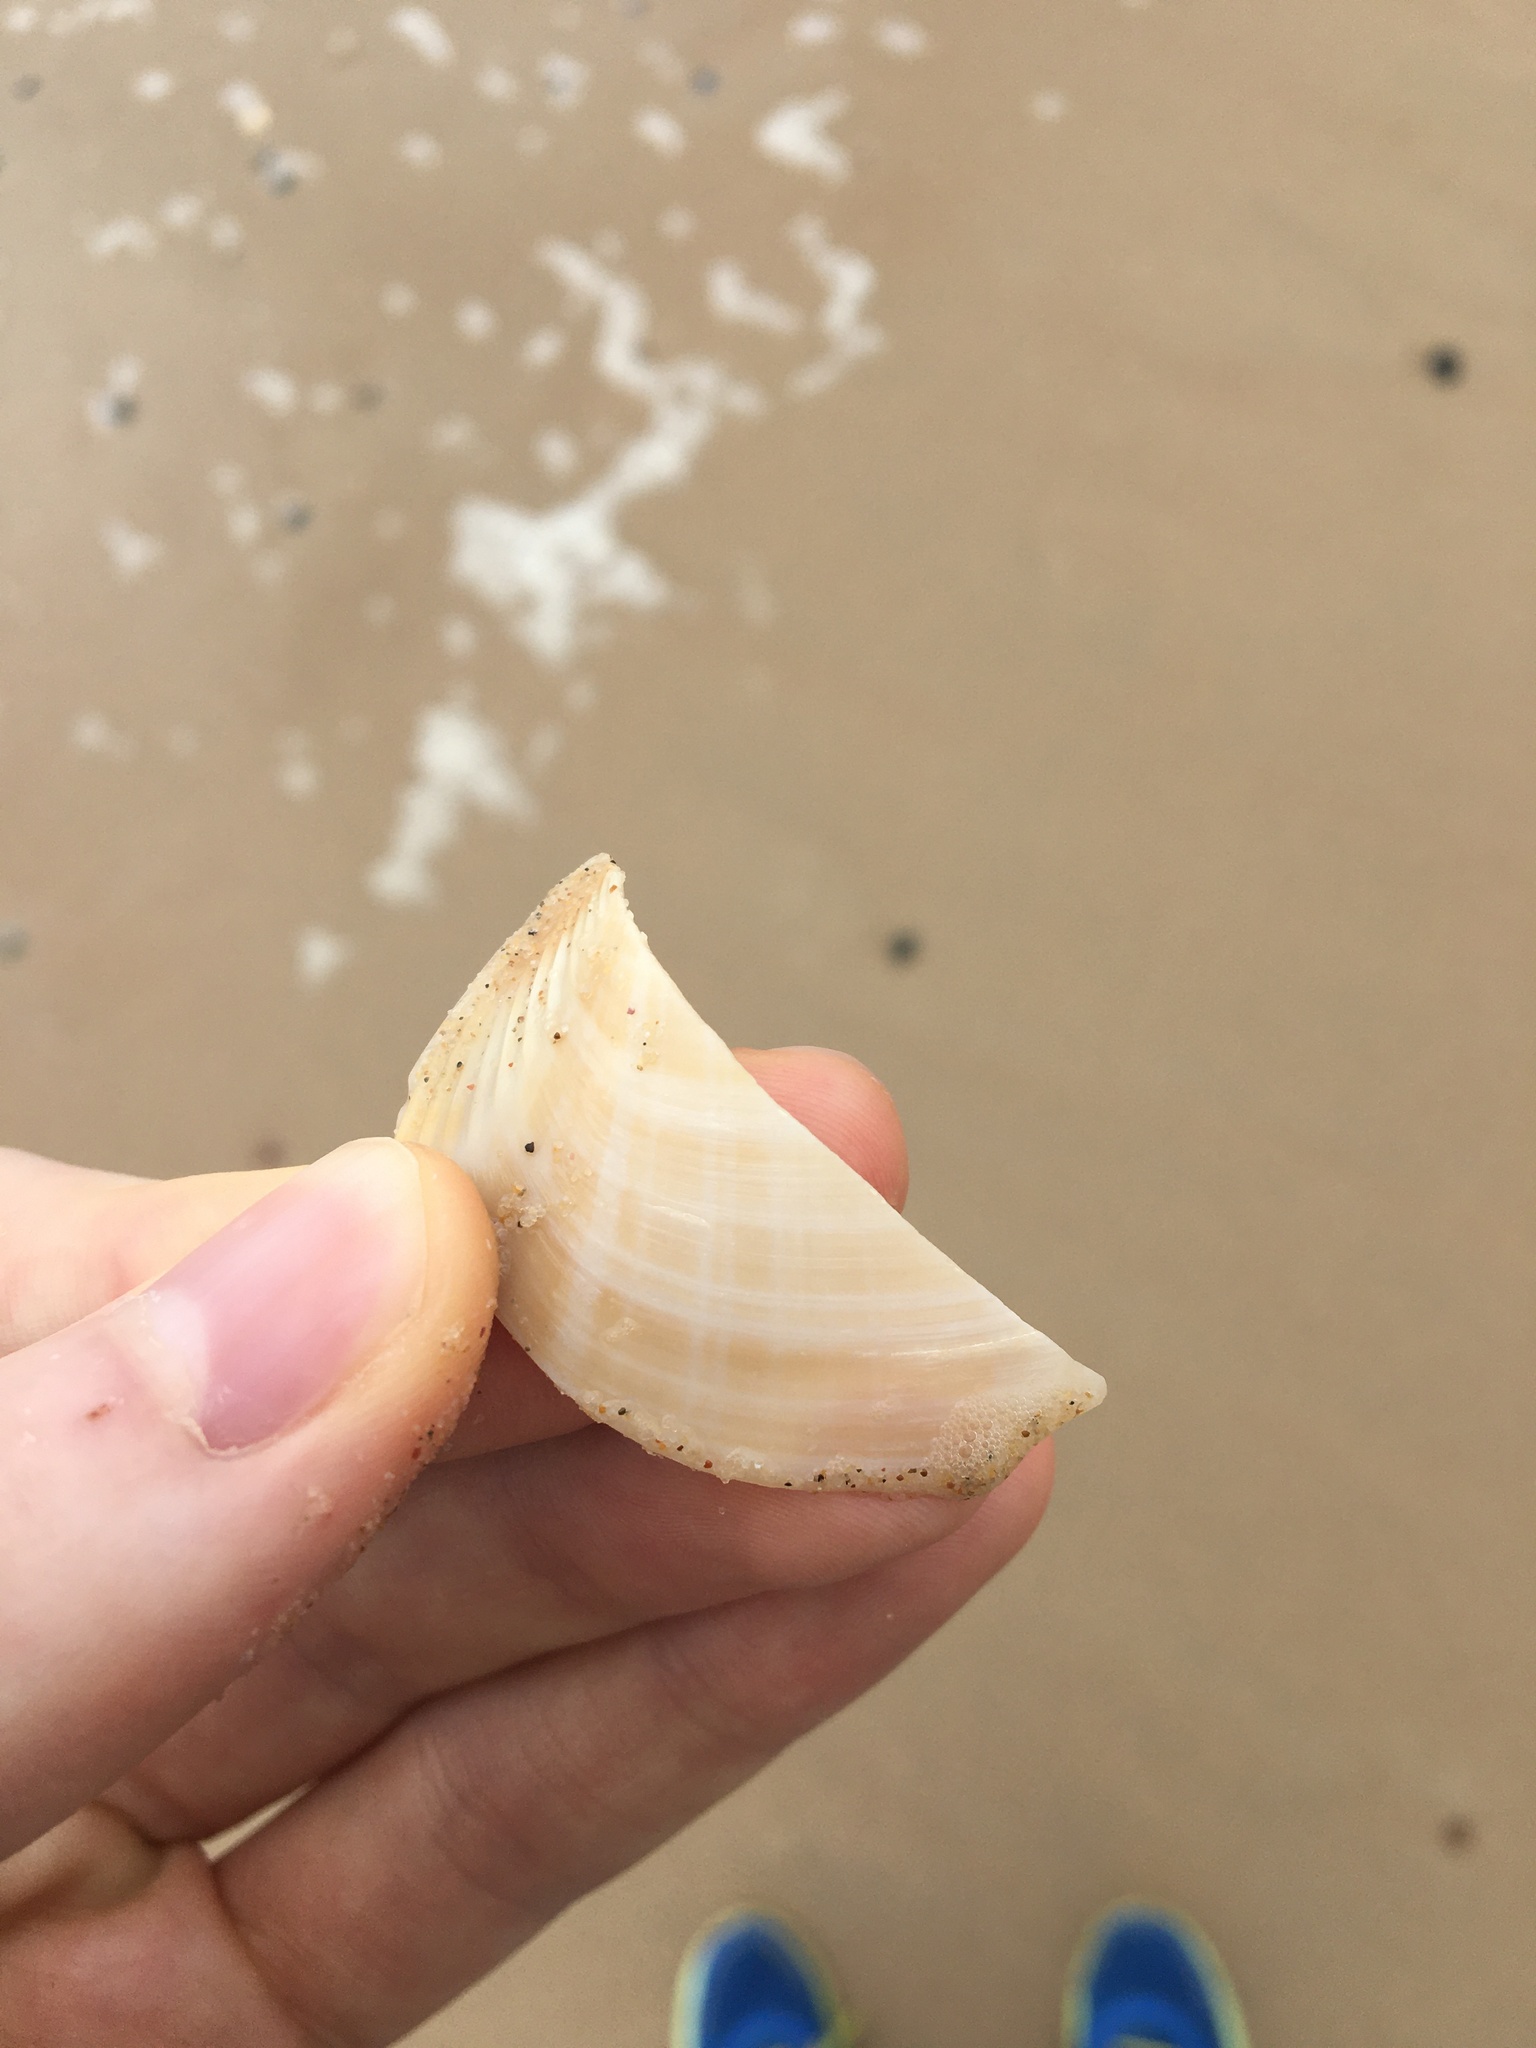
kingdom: Animalia
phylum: Mollusca
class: Bivalvia
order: Venerida
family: Mactridae
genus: Mactra
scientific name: Mactra eximia
